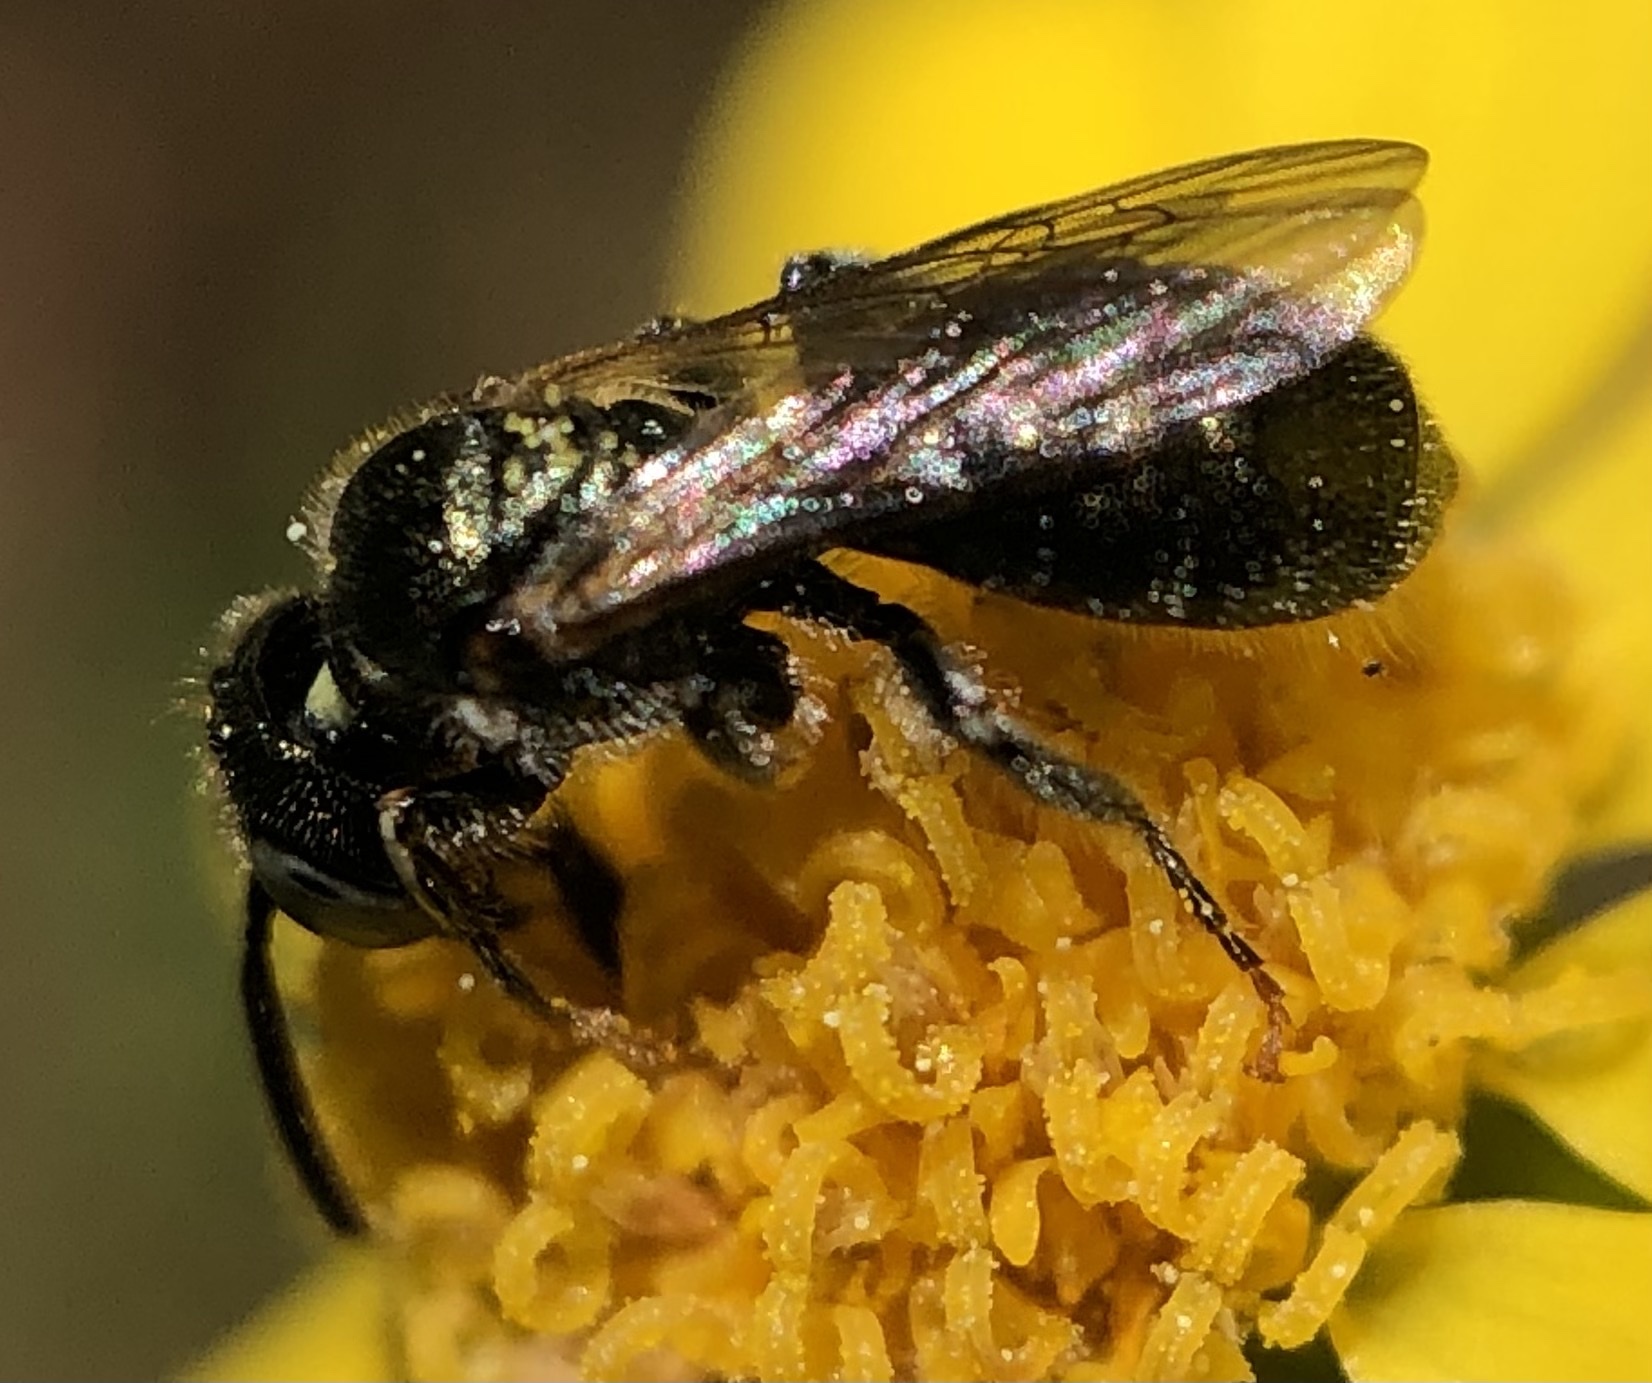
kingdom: Animalia
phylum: Arthropoda
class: Insecta
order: Hymenoptera
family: Apidae
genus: Ceratina
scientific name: Ceratina strenua
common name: Nimble carpenter bee
